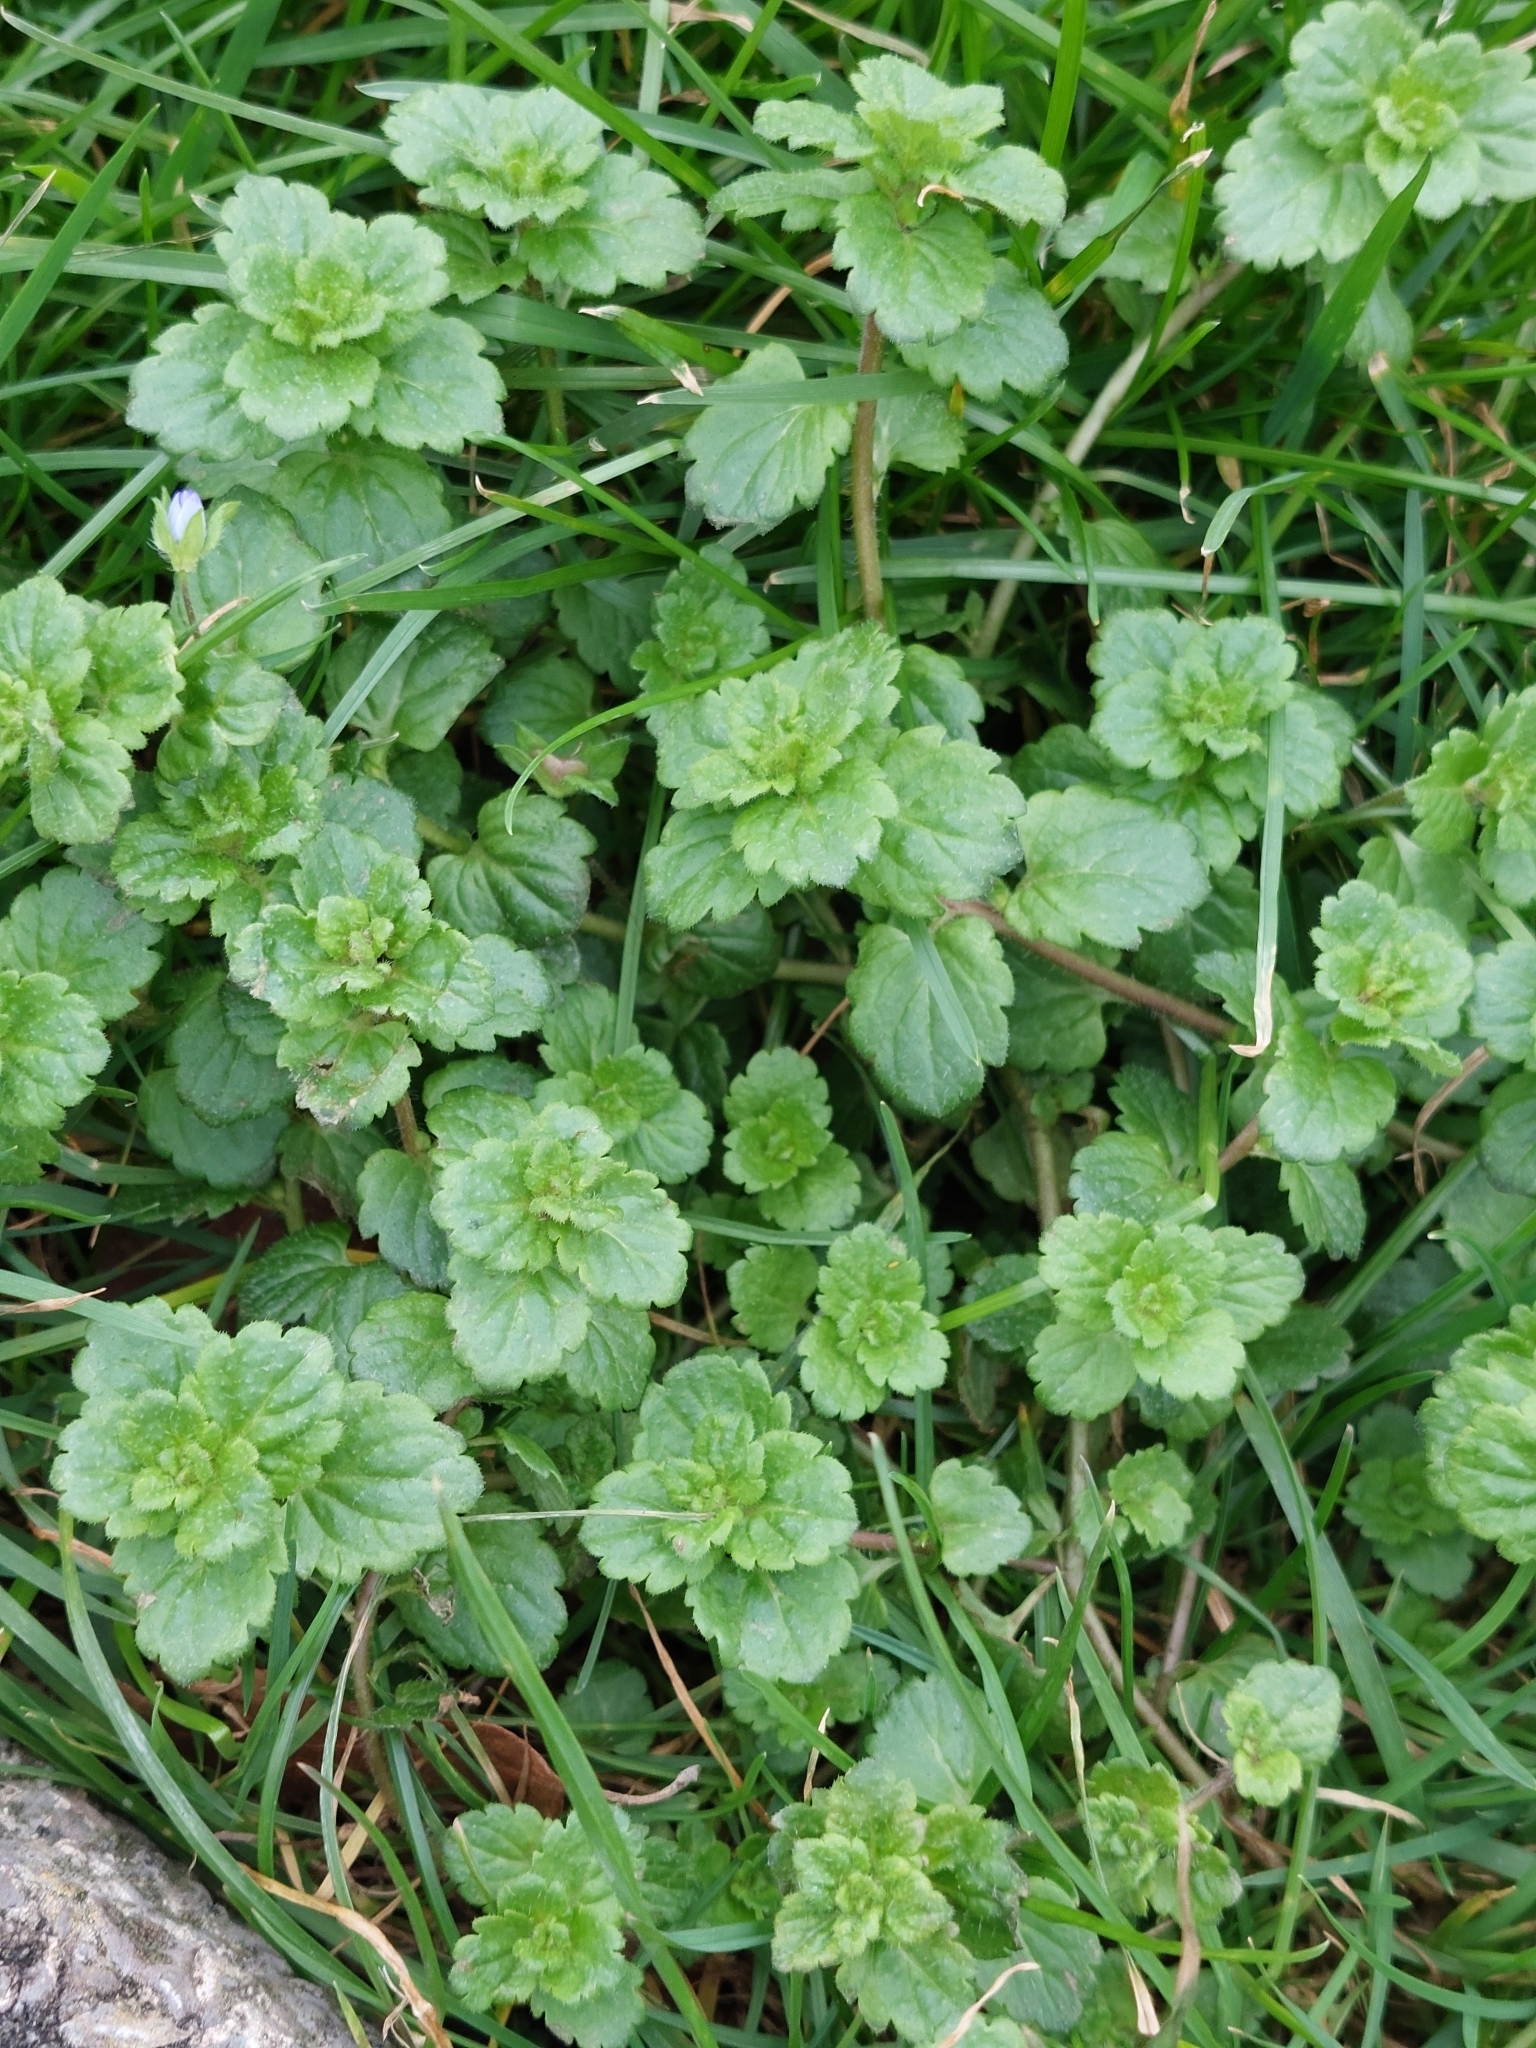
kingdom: Plantae
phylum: Tracheophyta
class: Magnoliopsida
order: Lamiales
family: Plantaginaceae
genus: Veronica
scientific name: Veronica persica
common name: Common field-speedwell
